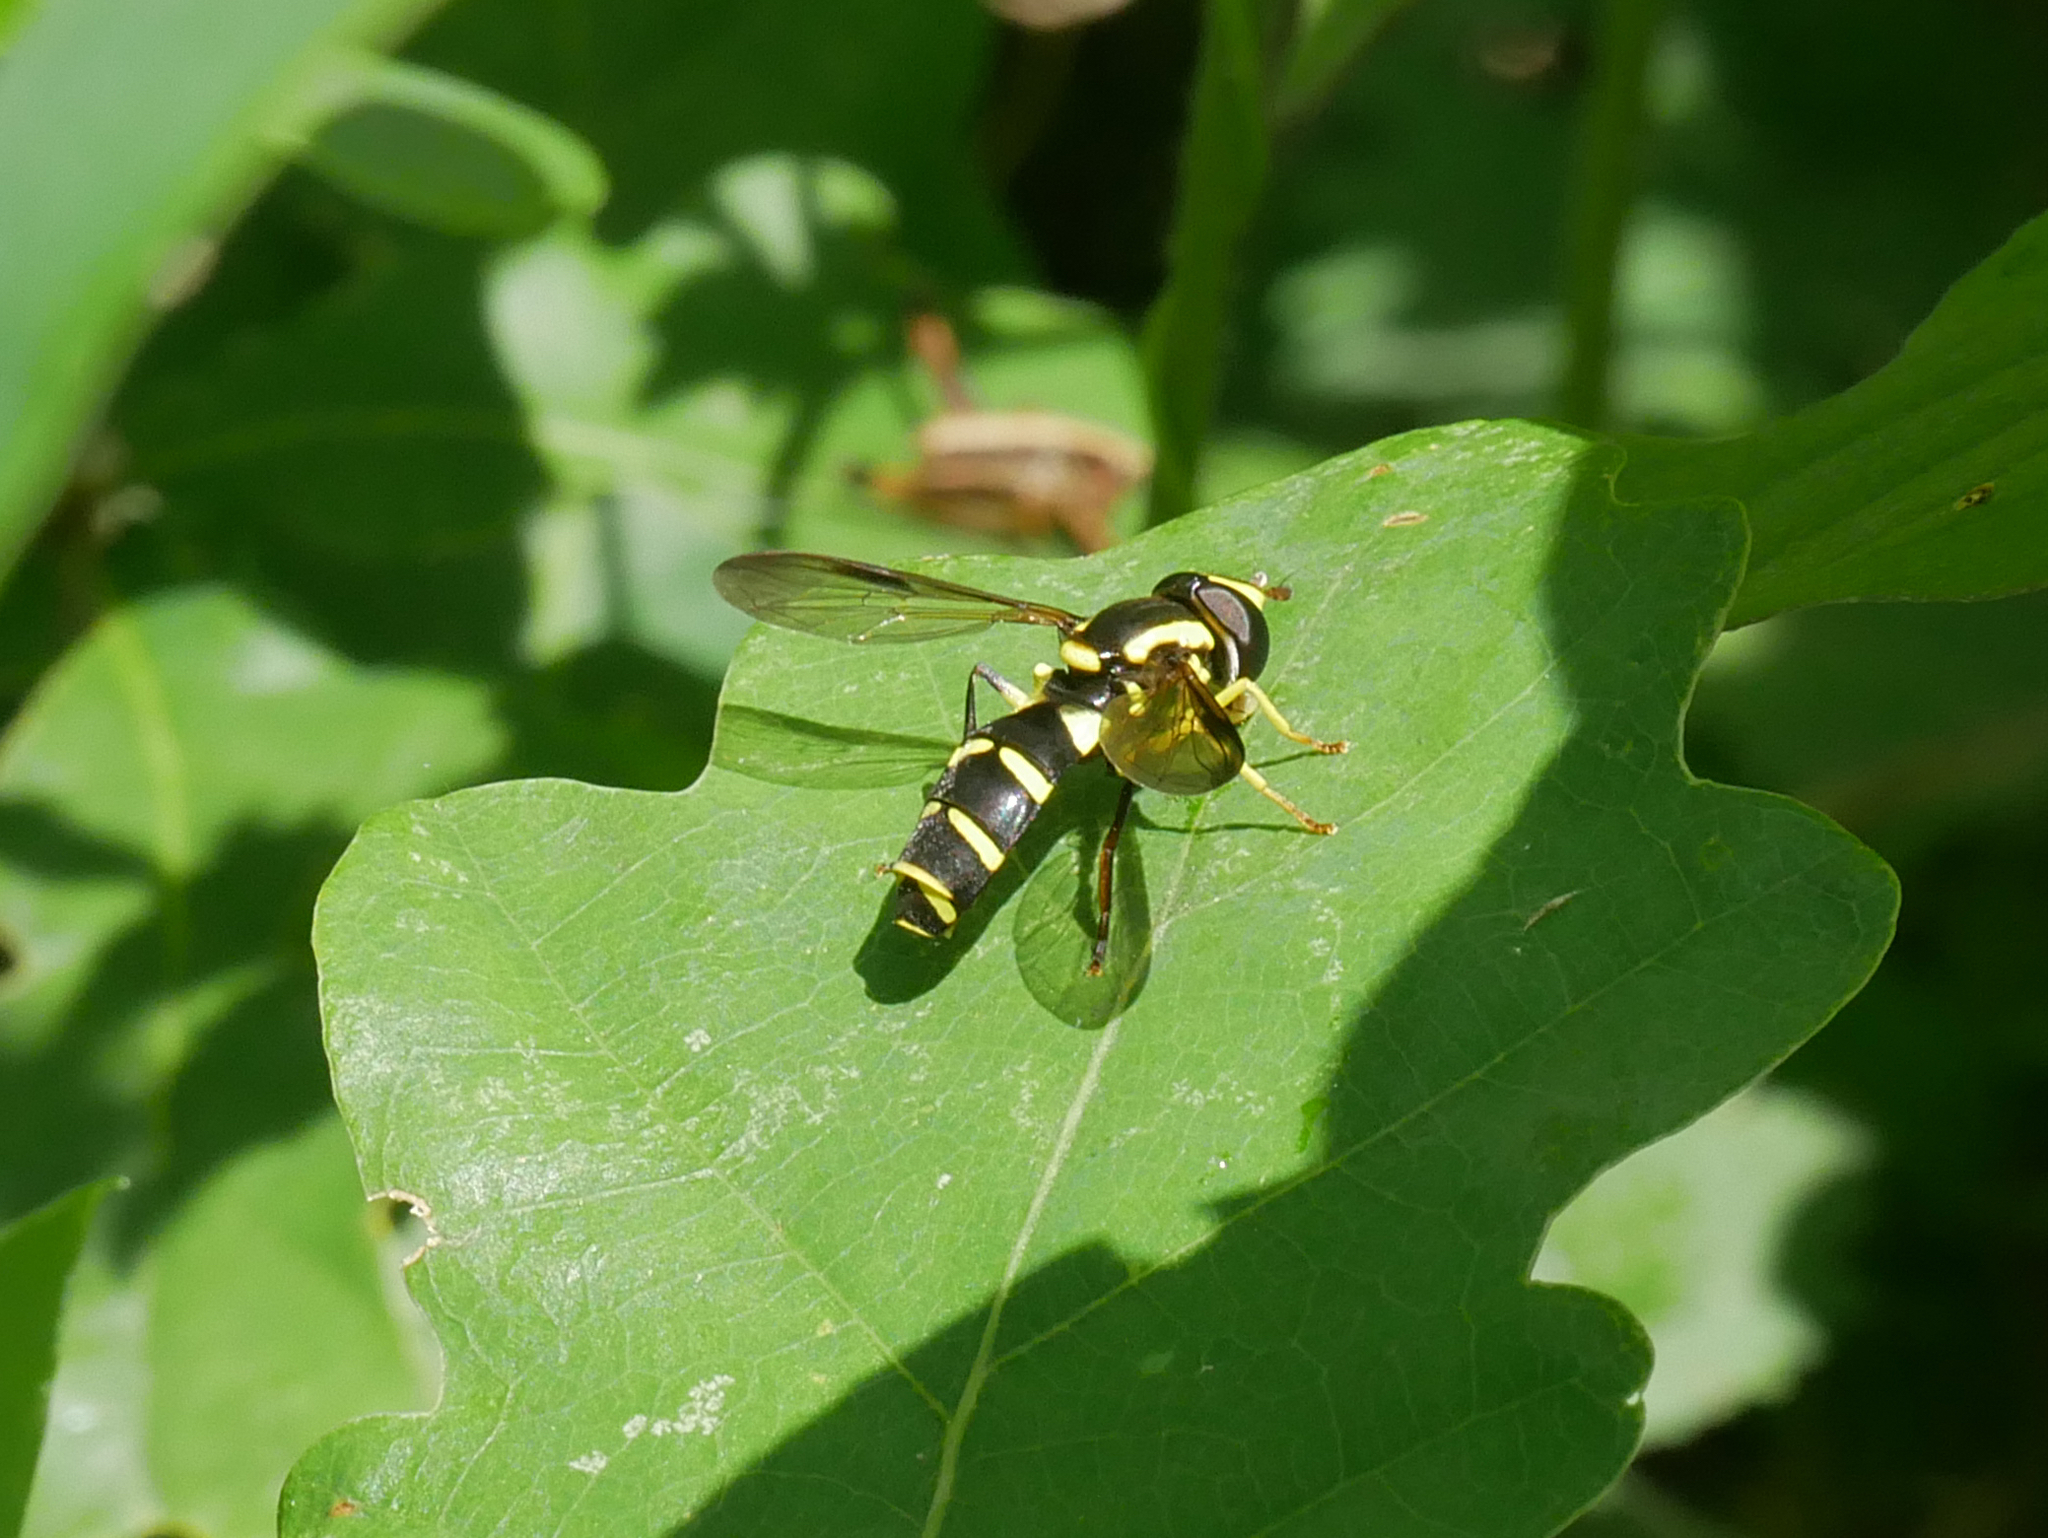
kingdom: Animalia
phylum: Arthropoda
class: Insecta
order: Diptera
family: Syrphidae
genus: Philhelius
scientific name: Philhelius dives
